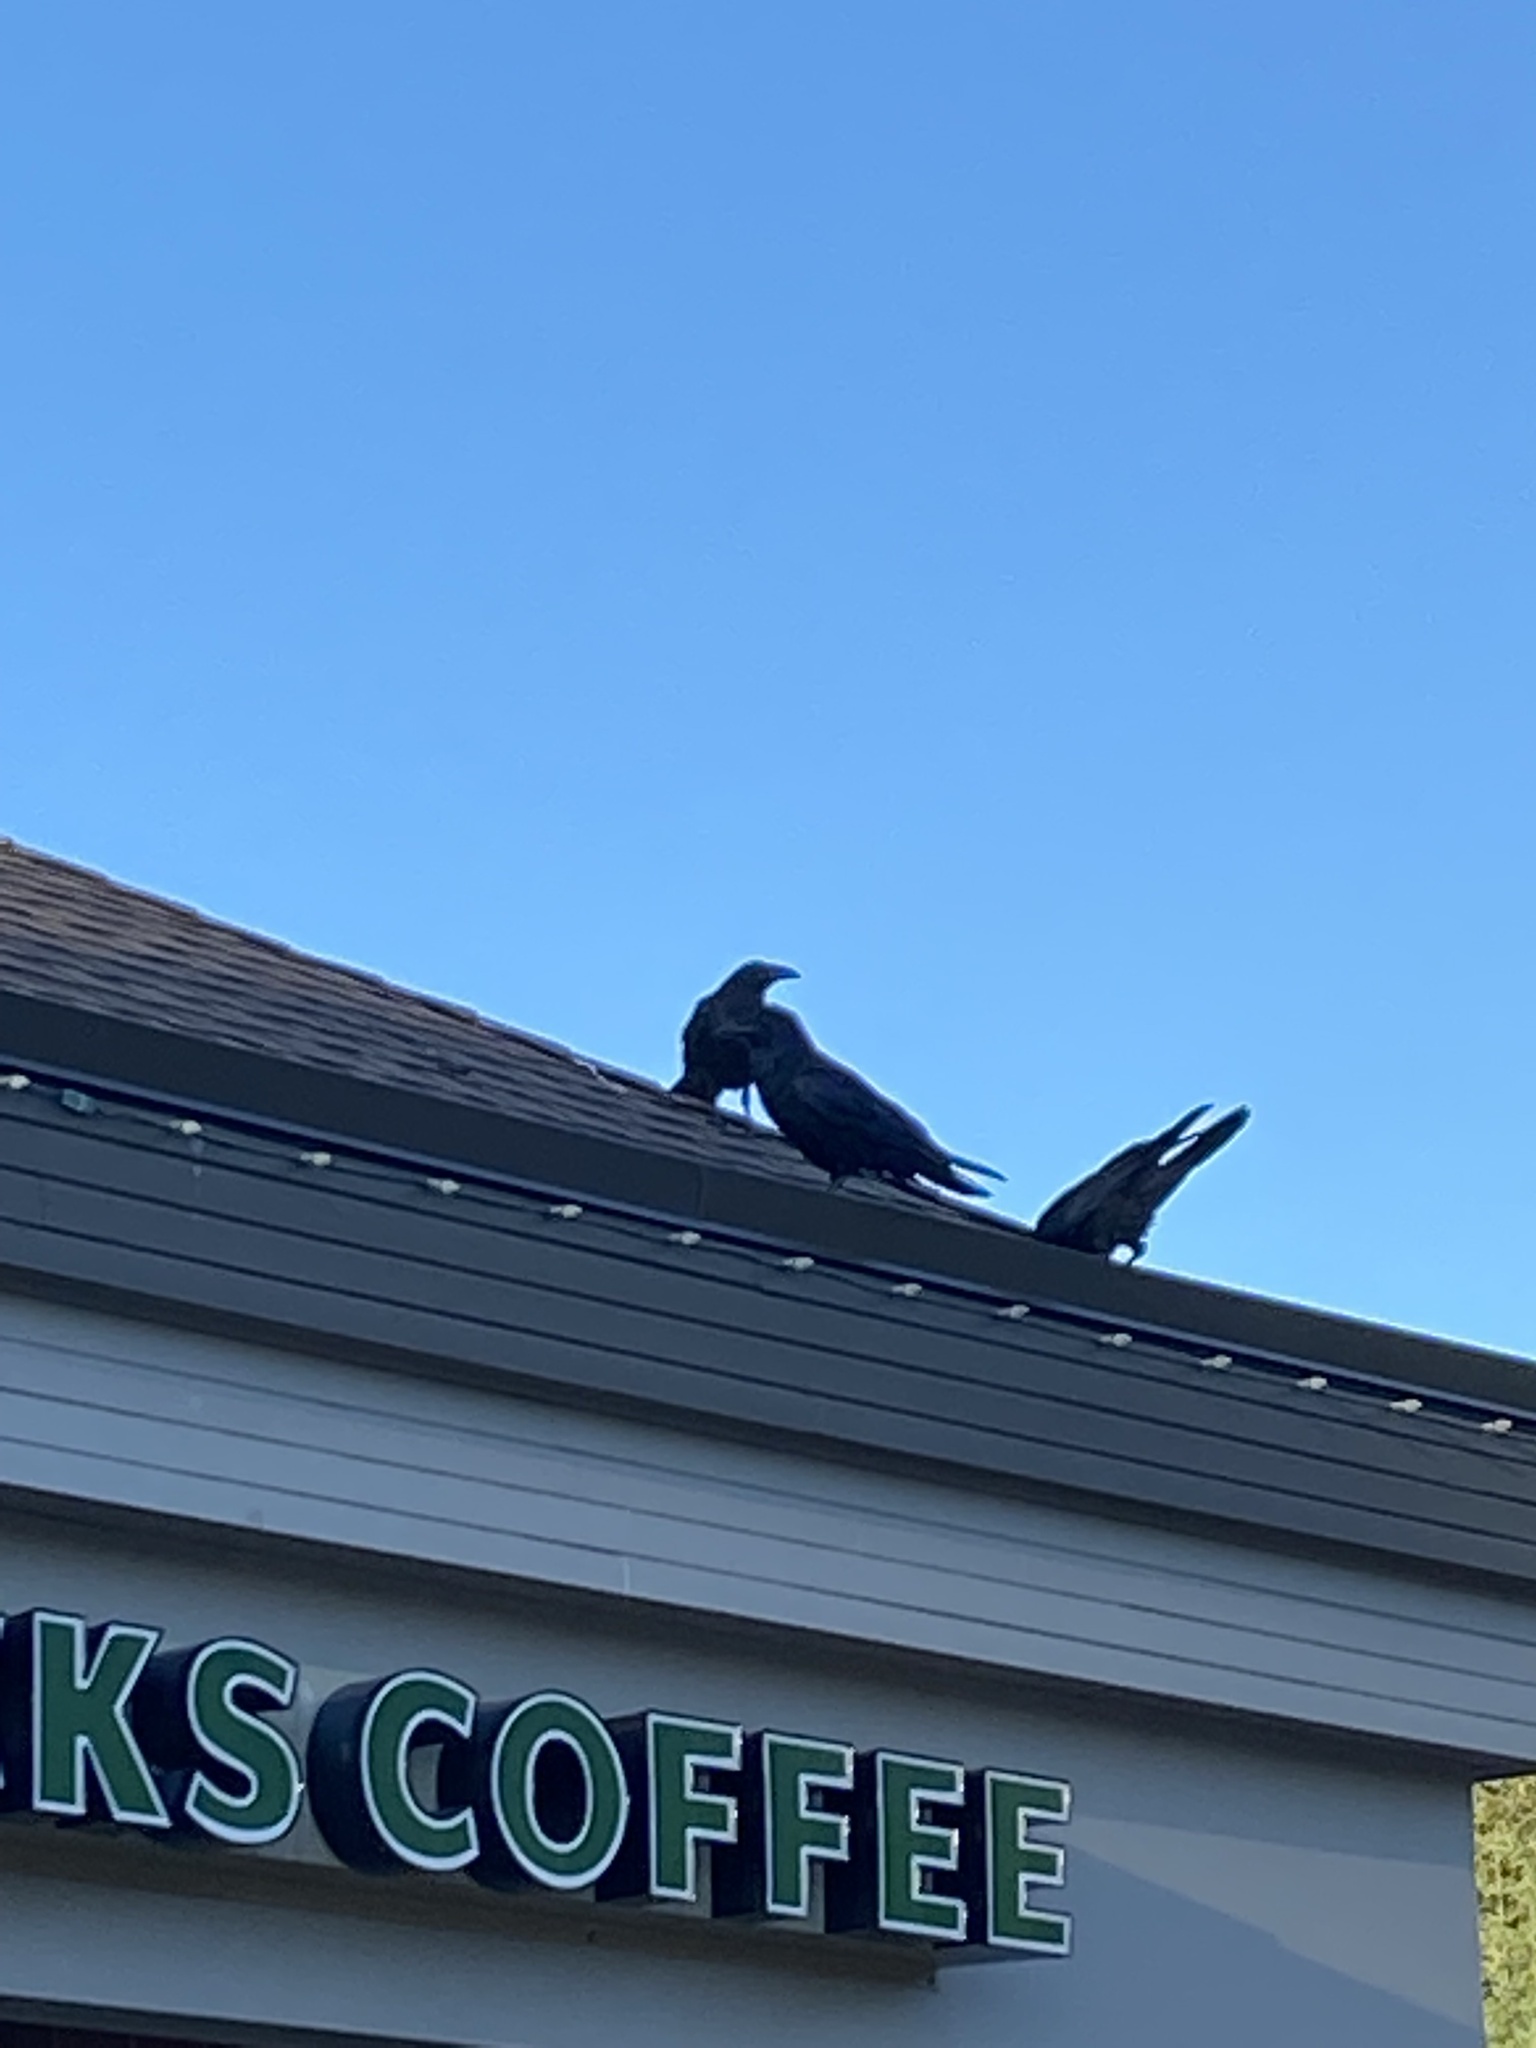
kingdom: Animalia
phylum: Chordata
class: Aves
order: Passeriformes
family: Corvidae
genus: Corvus
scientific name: Corvus corax
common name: Common raven
